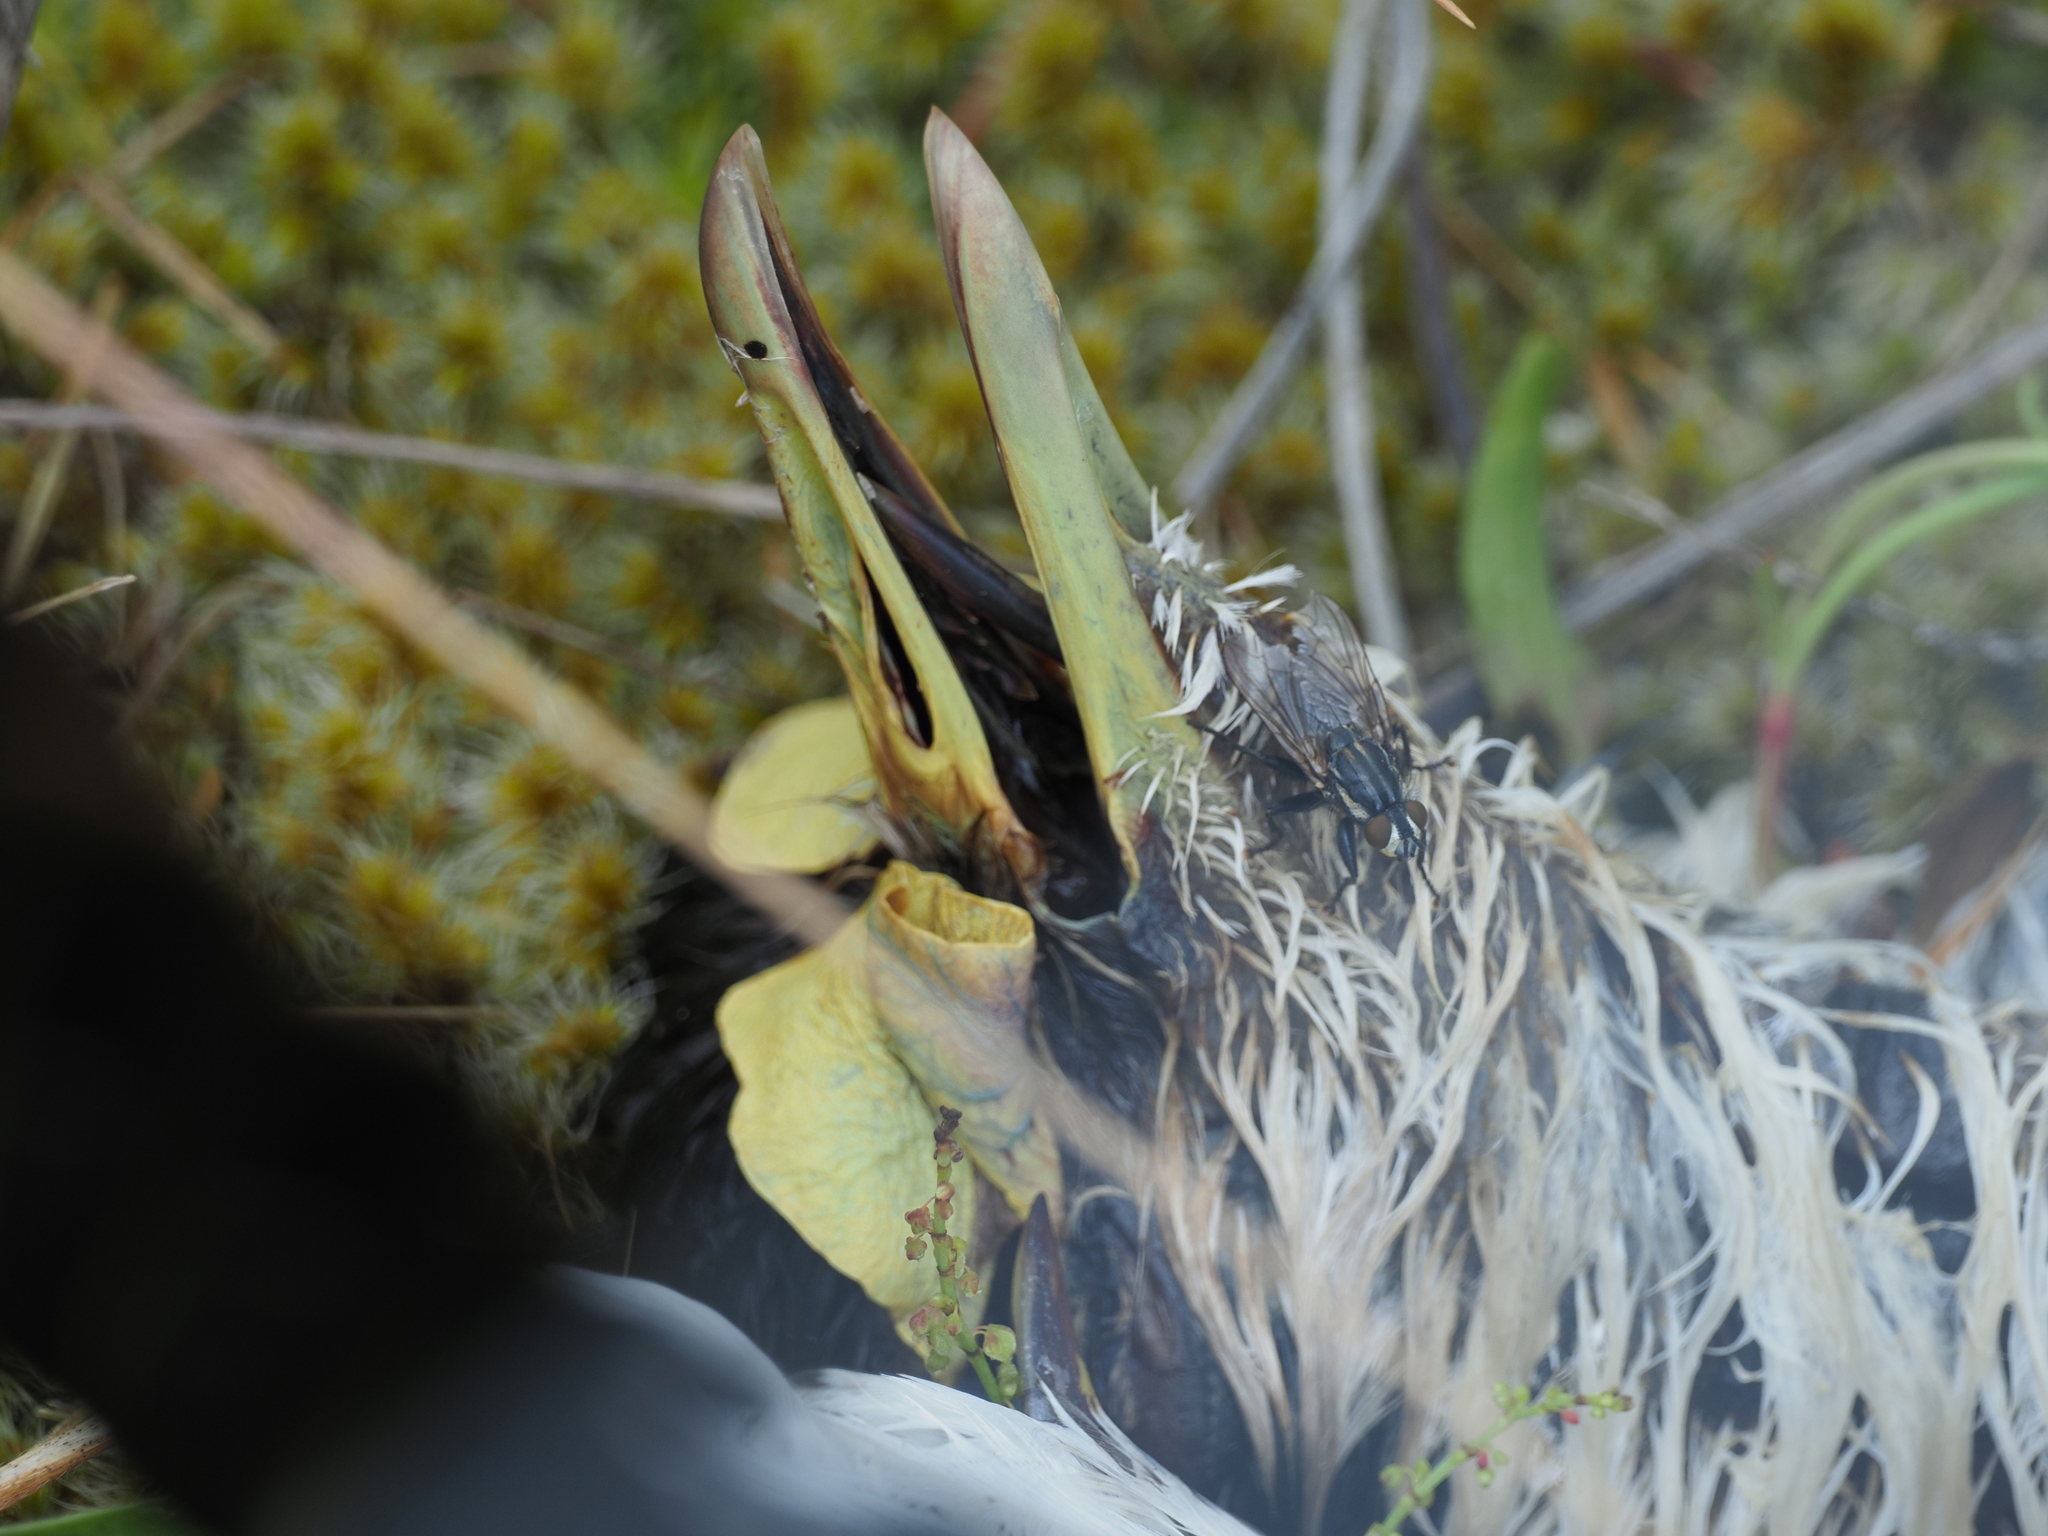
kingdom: Animalia
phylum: Arthropoda
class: Insecta
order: Diptera
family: Sarcophagidae
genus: Oxysarcodexia
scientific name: Oxysarcodexia varia
